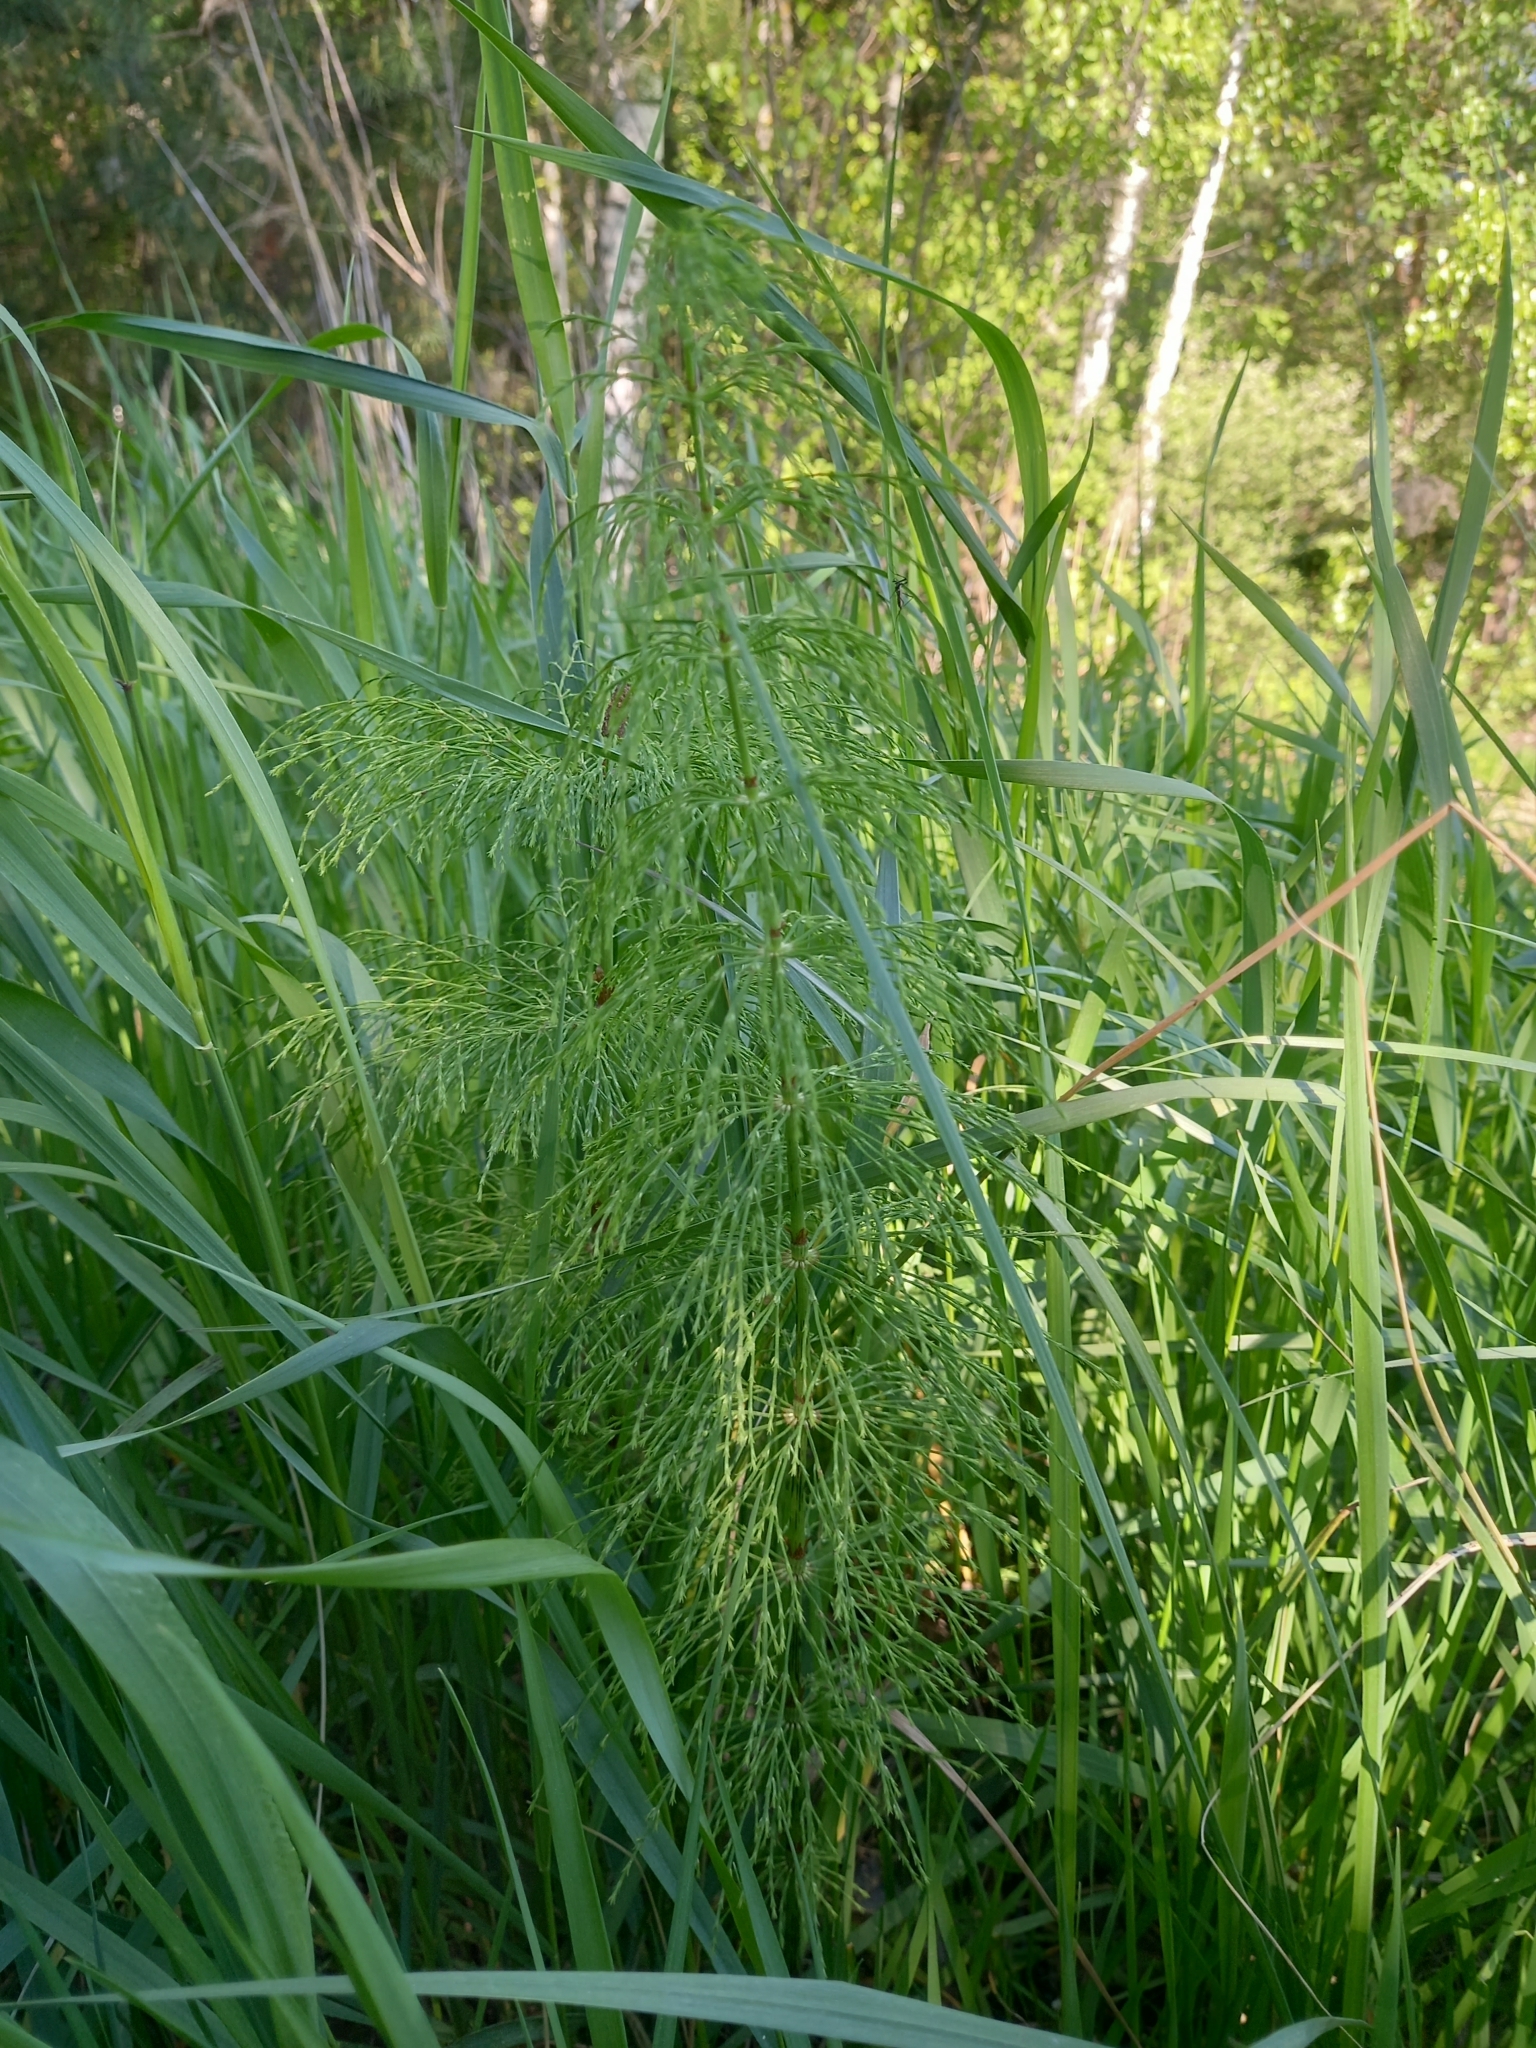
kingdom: Plantae
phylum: Tracheophyta
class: Polypodiopsida
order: Equisetales
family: Equisetaceae
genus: Equisetum
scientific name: Equisetum sylvaticum
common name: Wood horsetail
